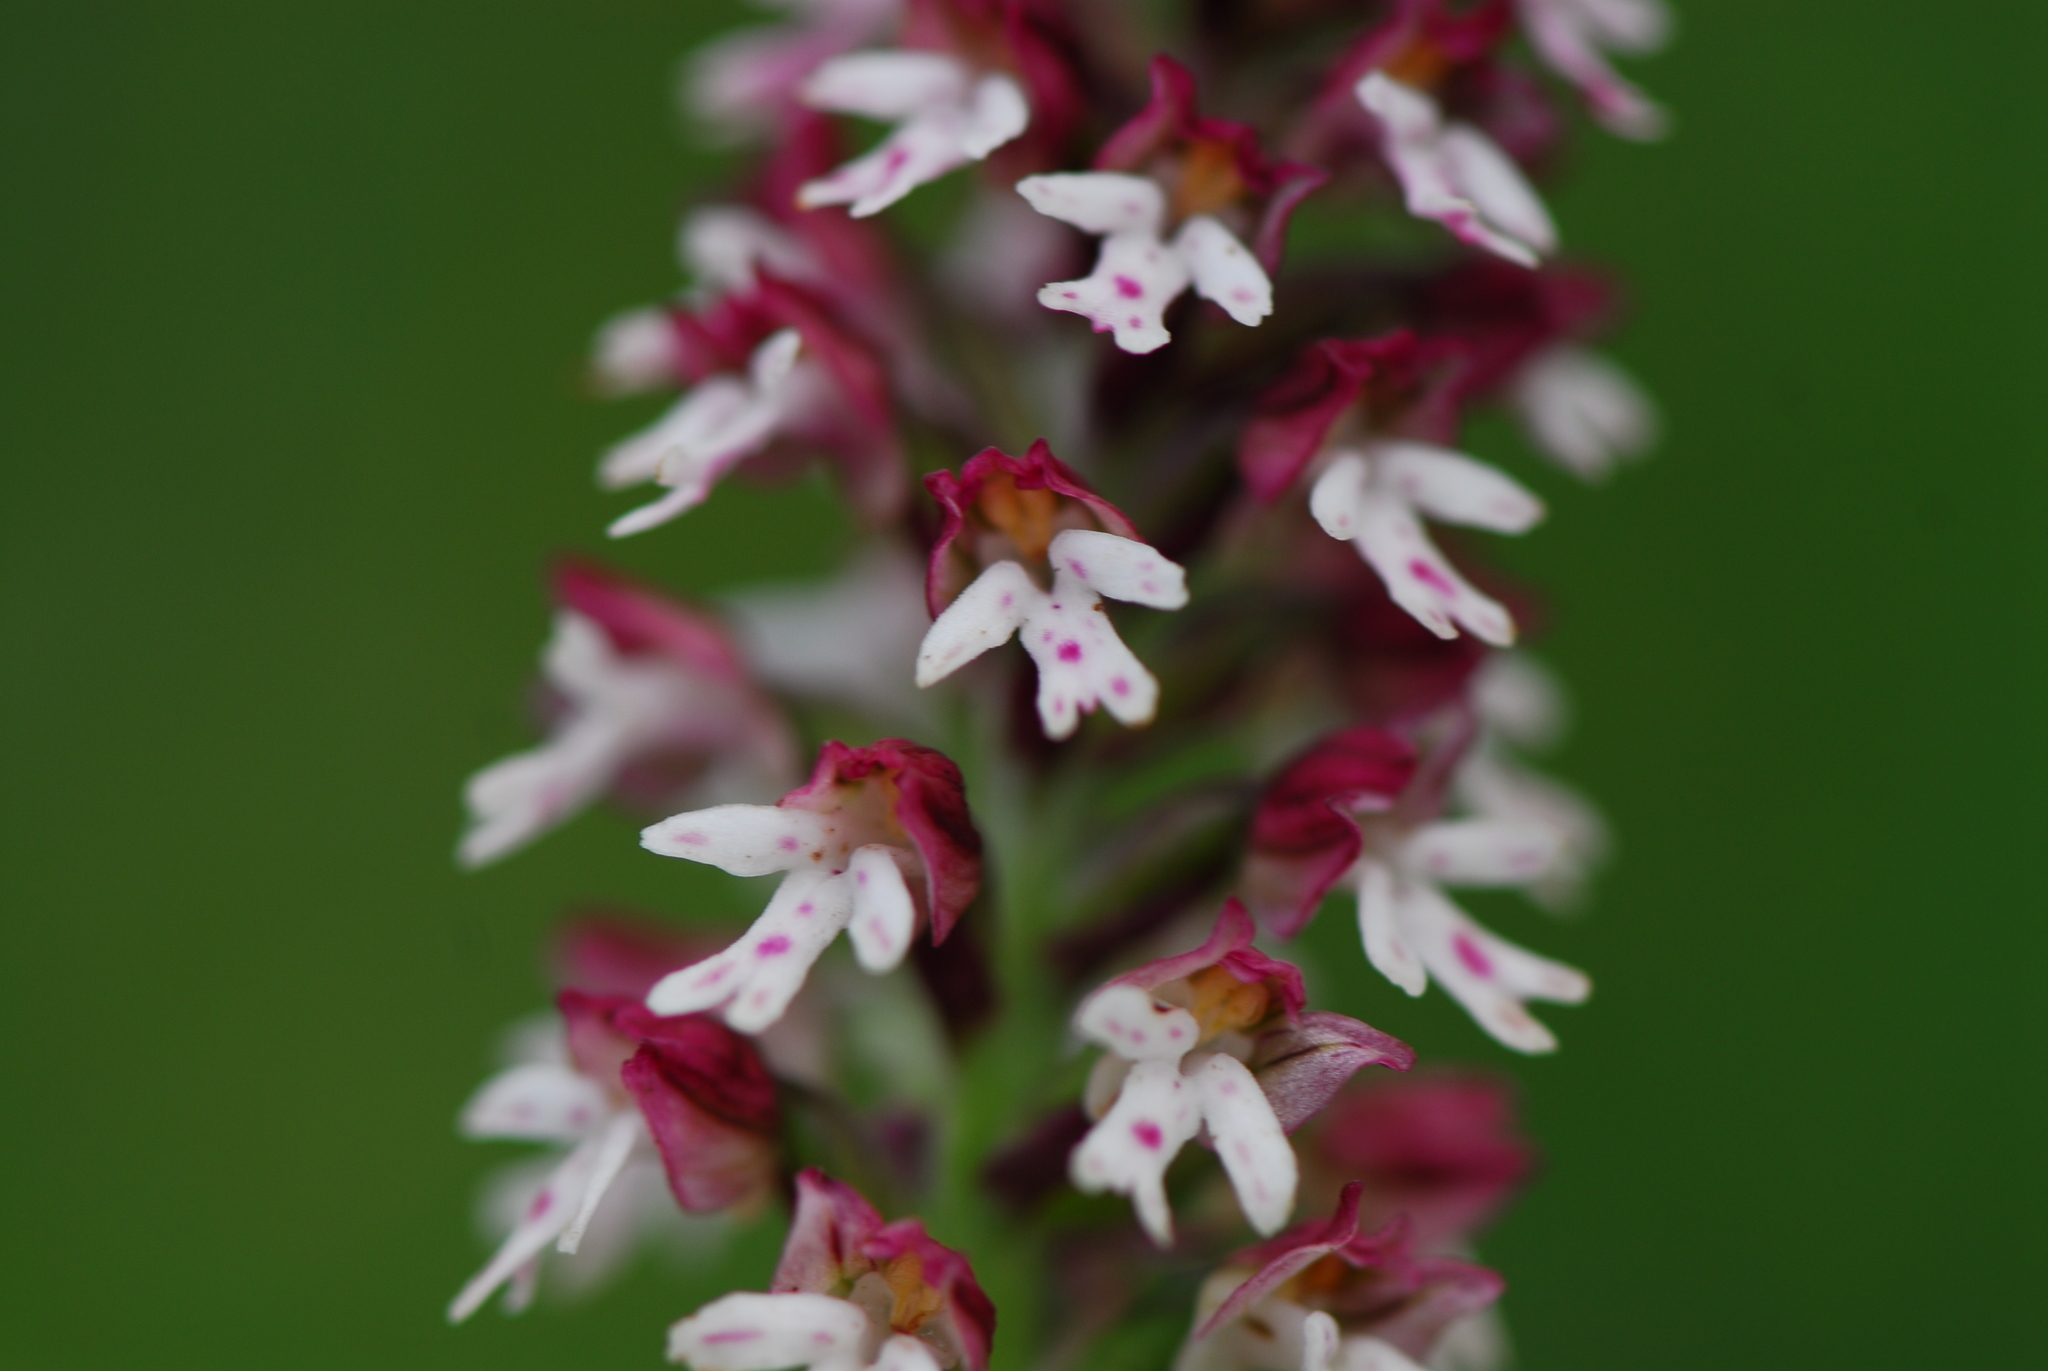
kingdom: Plantae
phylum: Tracheophyta
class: Liliopsida
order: Asparagales
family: Orchidaceae
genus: Neotinea
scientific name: Neotinea ustulata
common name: Burnt orchid
